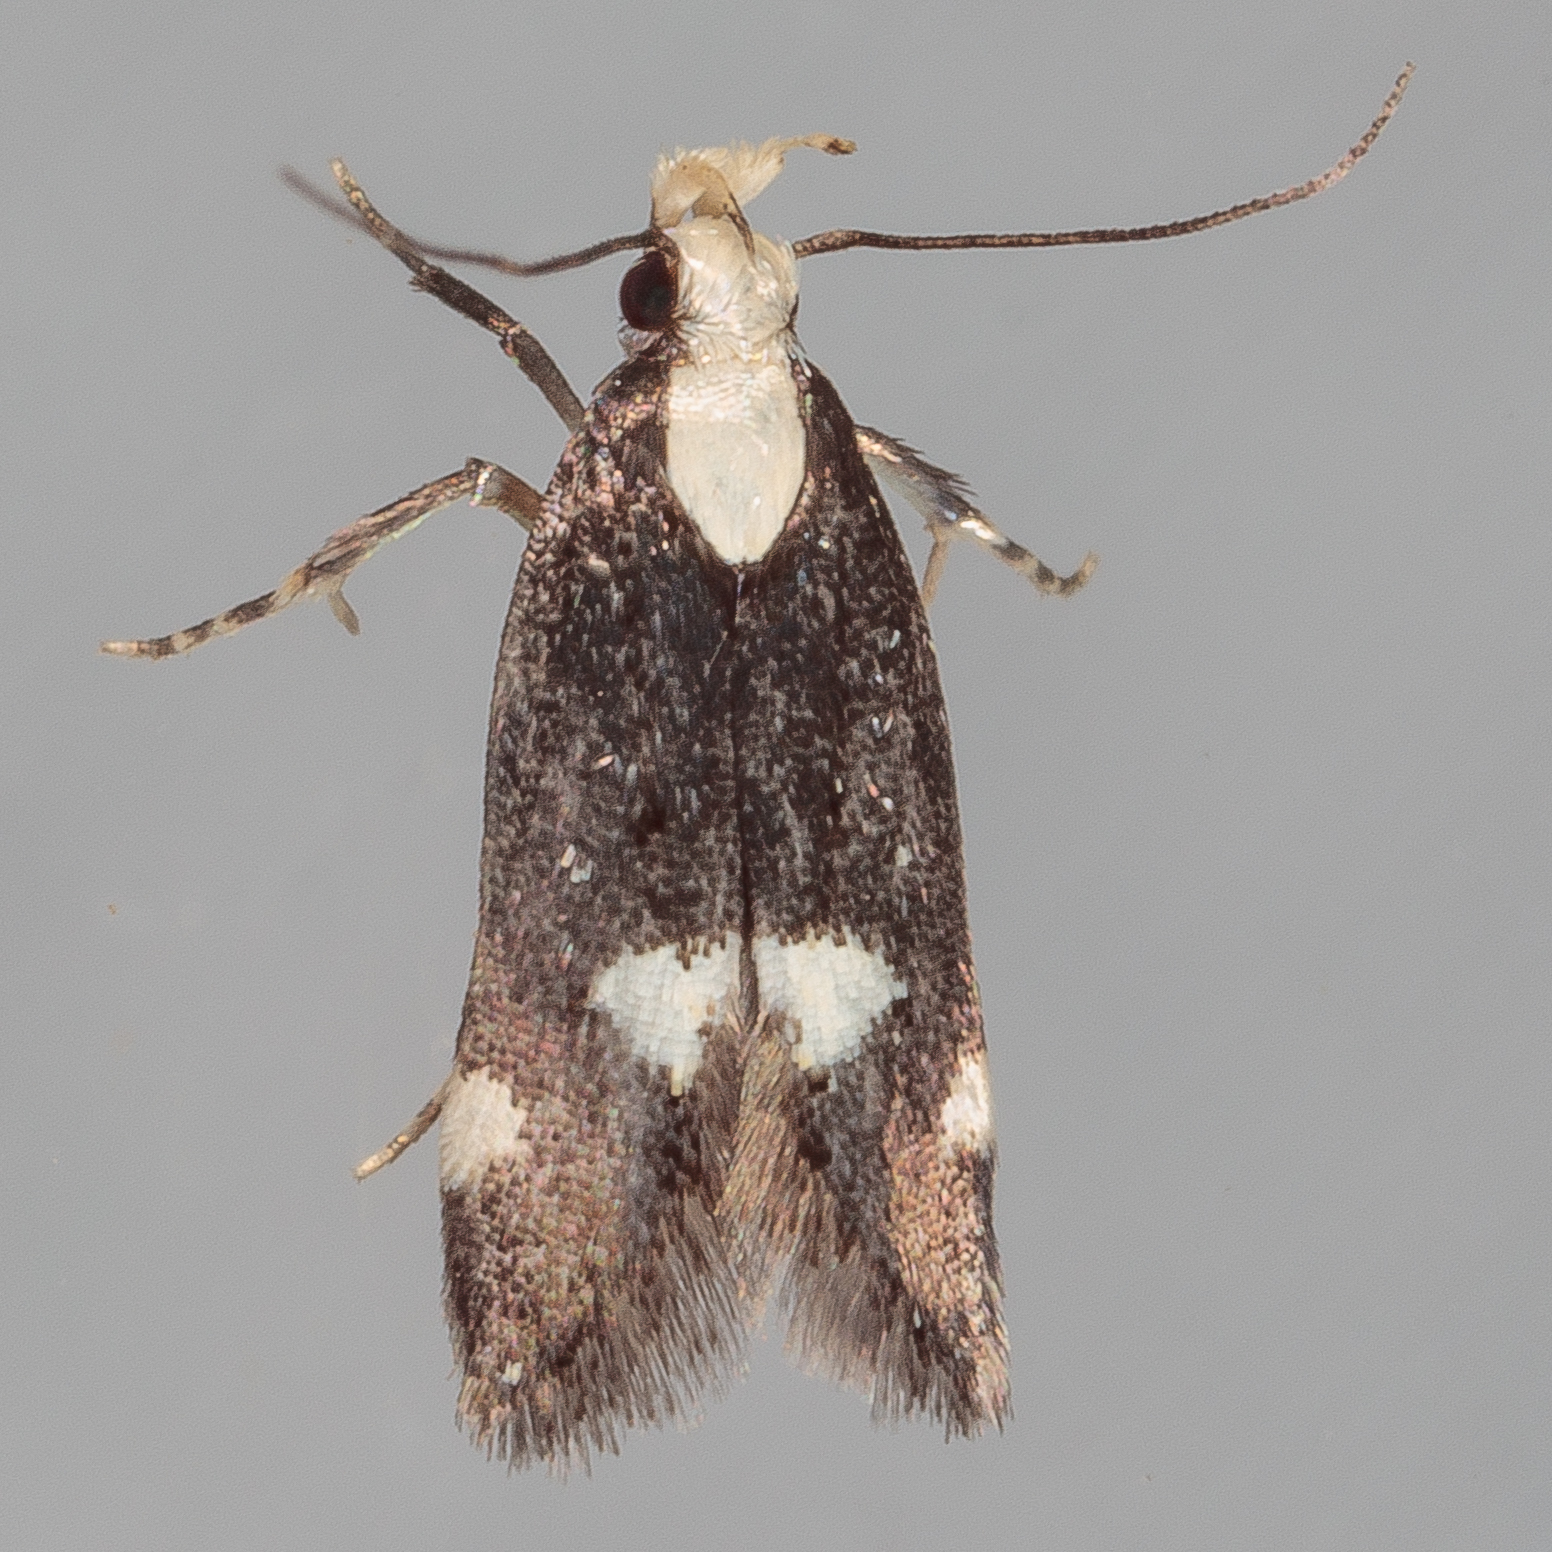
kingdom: Animalia
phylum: Arthropoda
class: Insecta
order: Lepidoptera
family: Gelechiidae
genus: Chionodes
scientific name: Chionodes mariona
